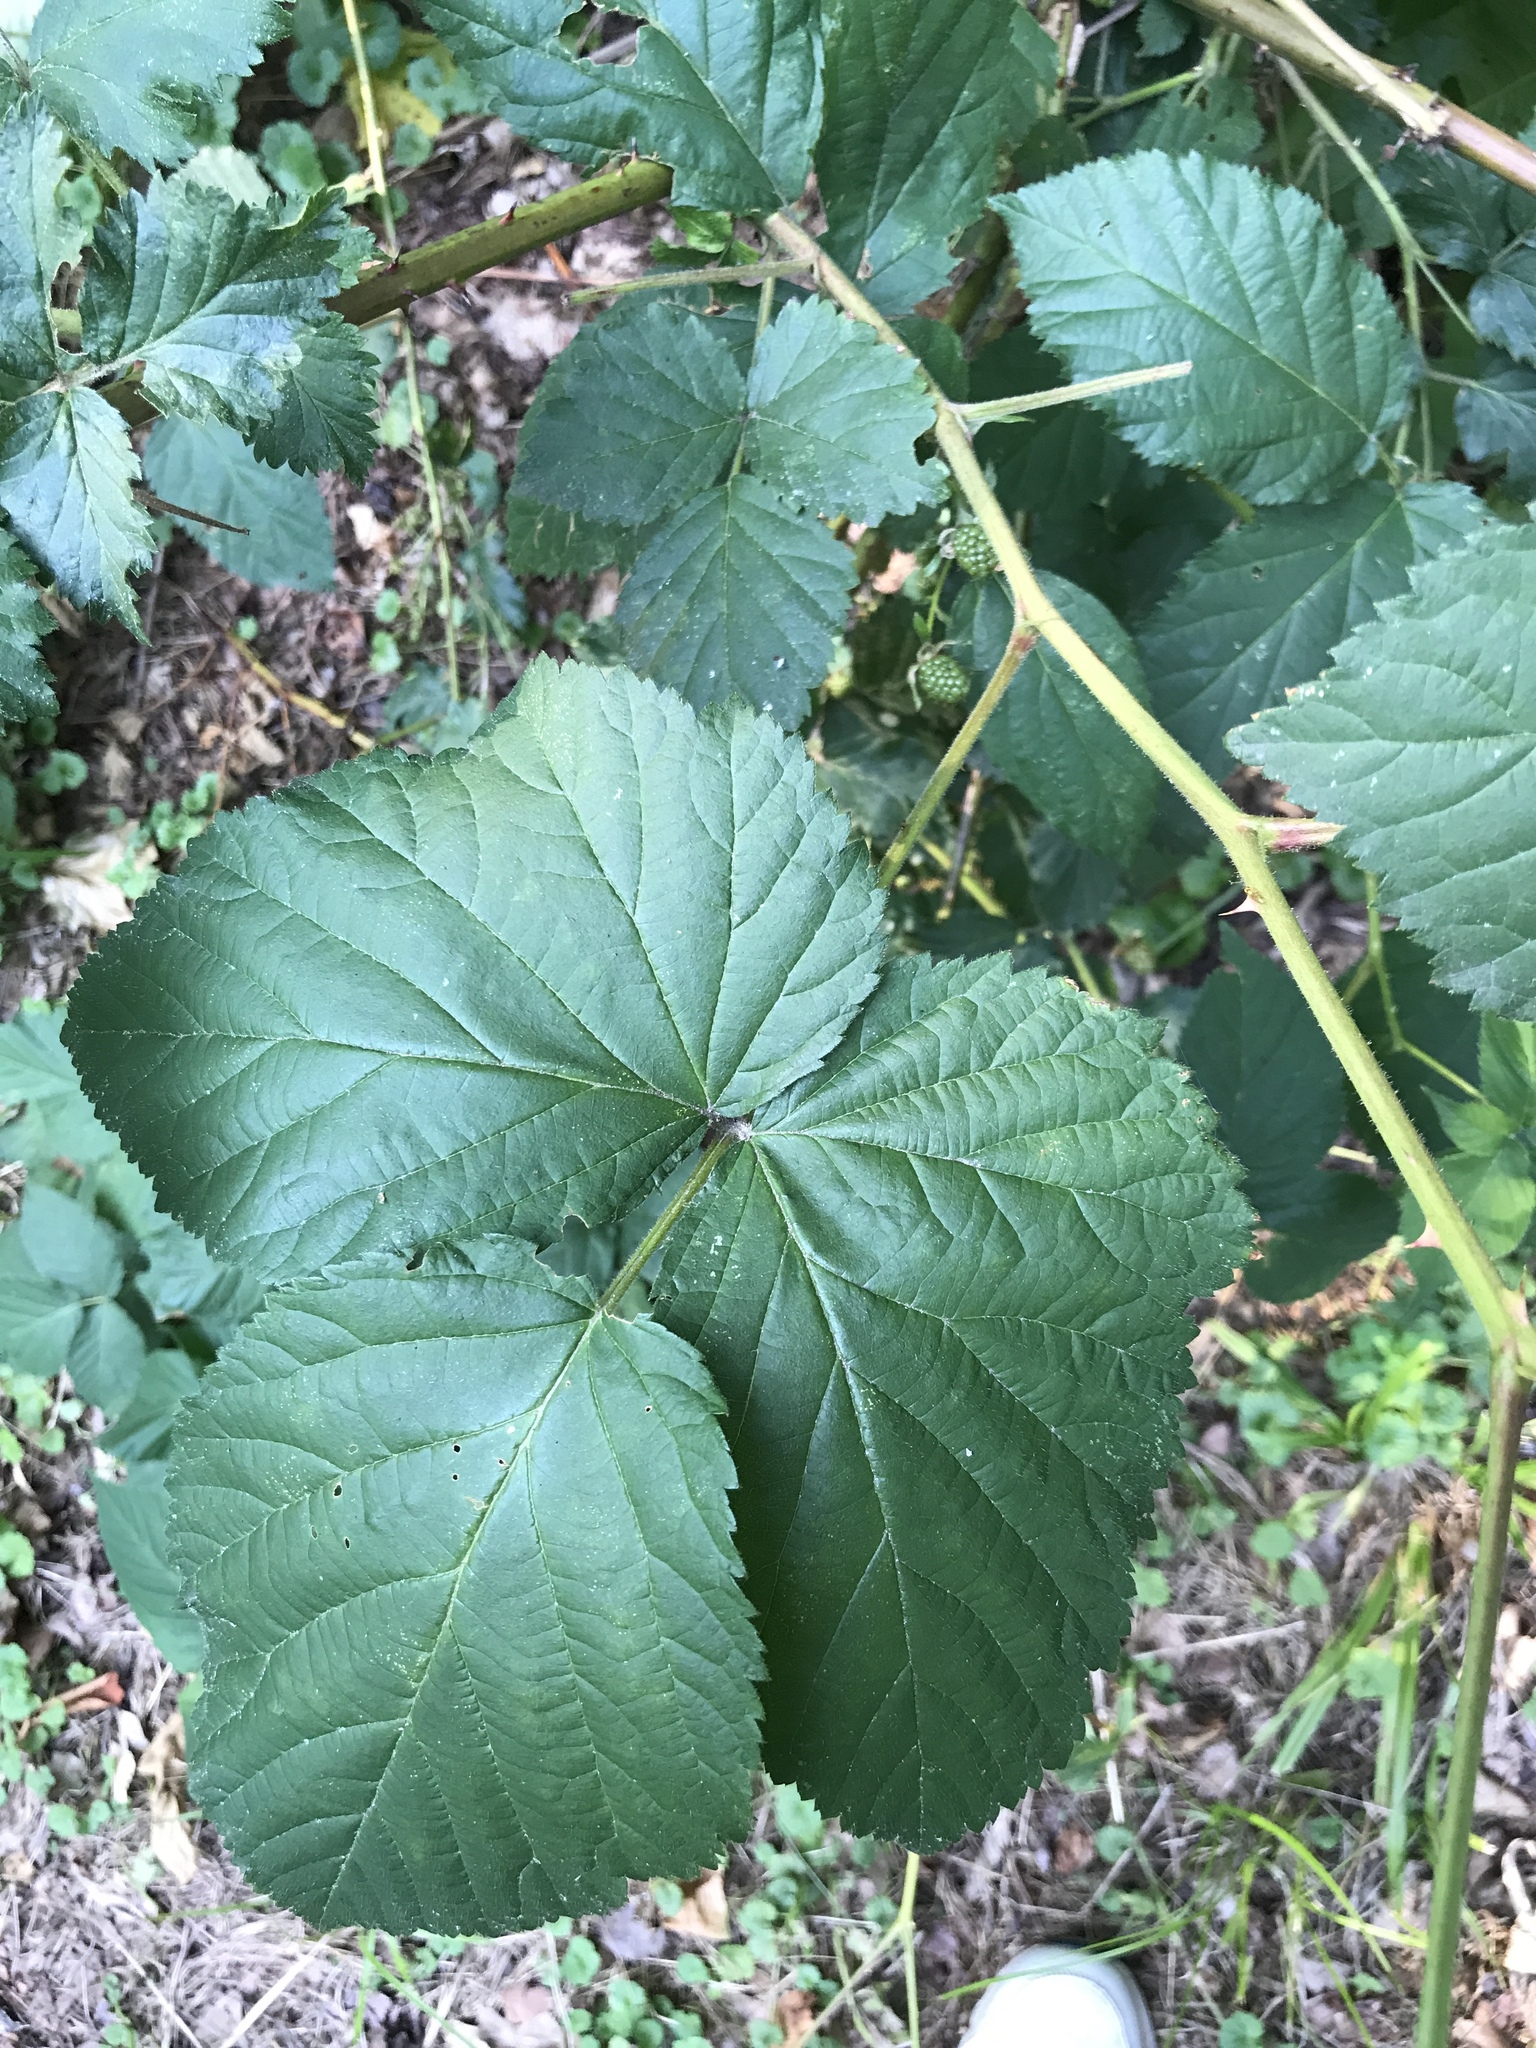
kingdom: Plantae
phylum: Tracheophyta
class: Magnoliopsida
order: Rosales
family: Rosaceae
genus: Rubus
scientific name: Rubus allegheniensis
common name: Allegheny blackberry
